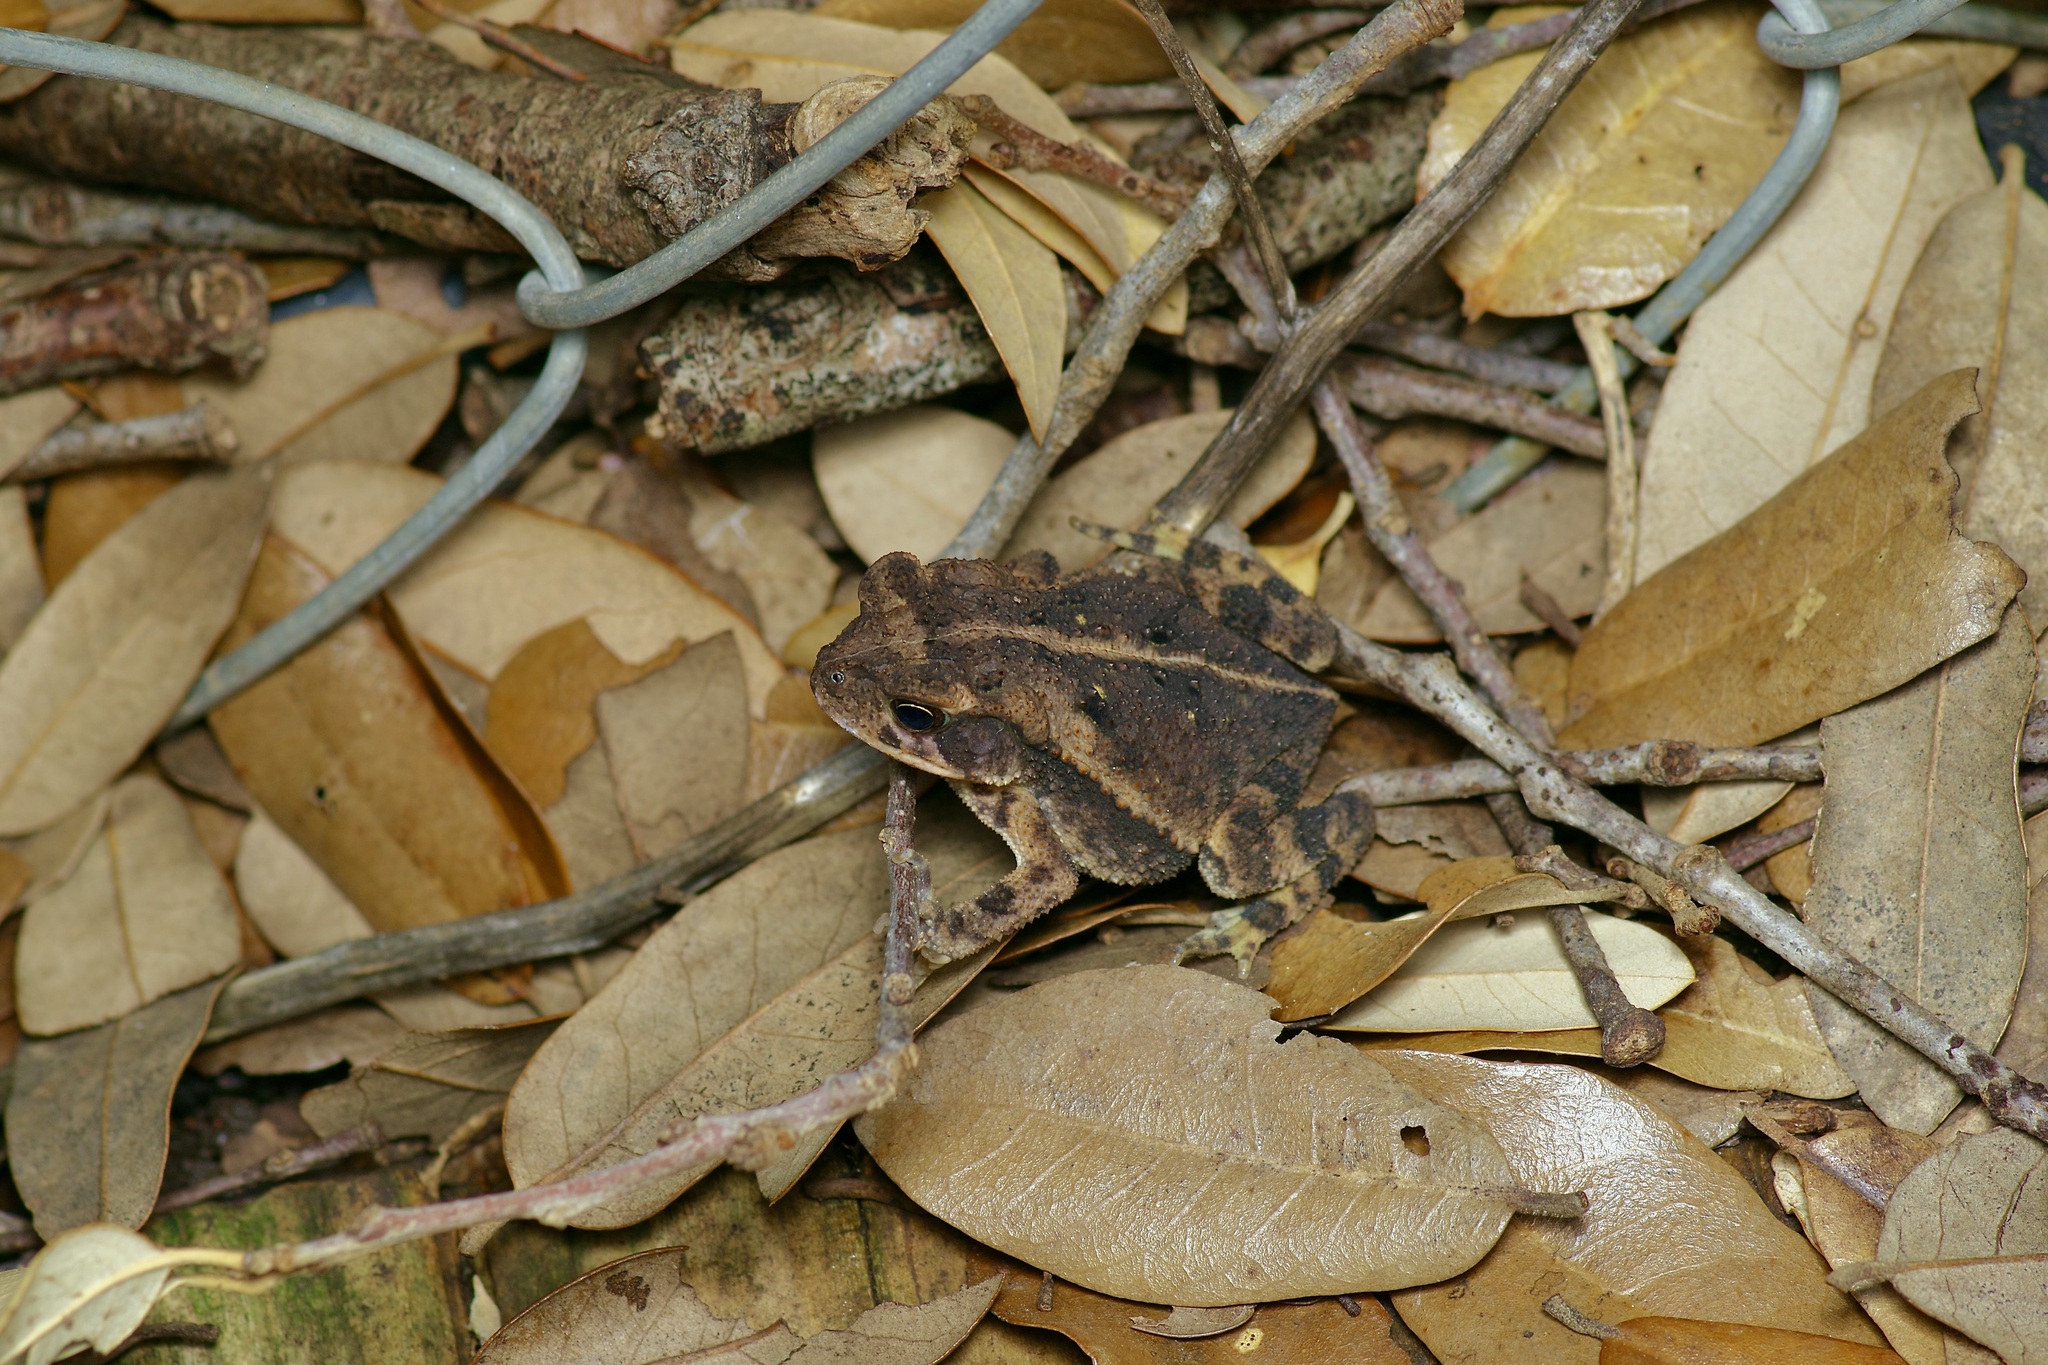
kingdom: Animalia
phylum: Chordata
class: Amphibia
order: Anura
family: Bufonidae
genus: Incilius
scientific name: Incilius nebulifer
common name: Gulf coast toad
